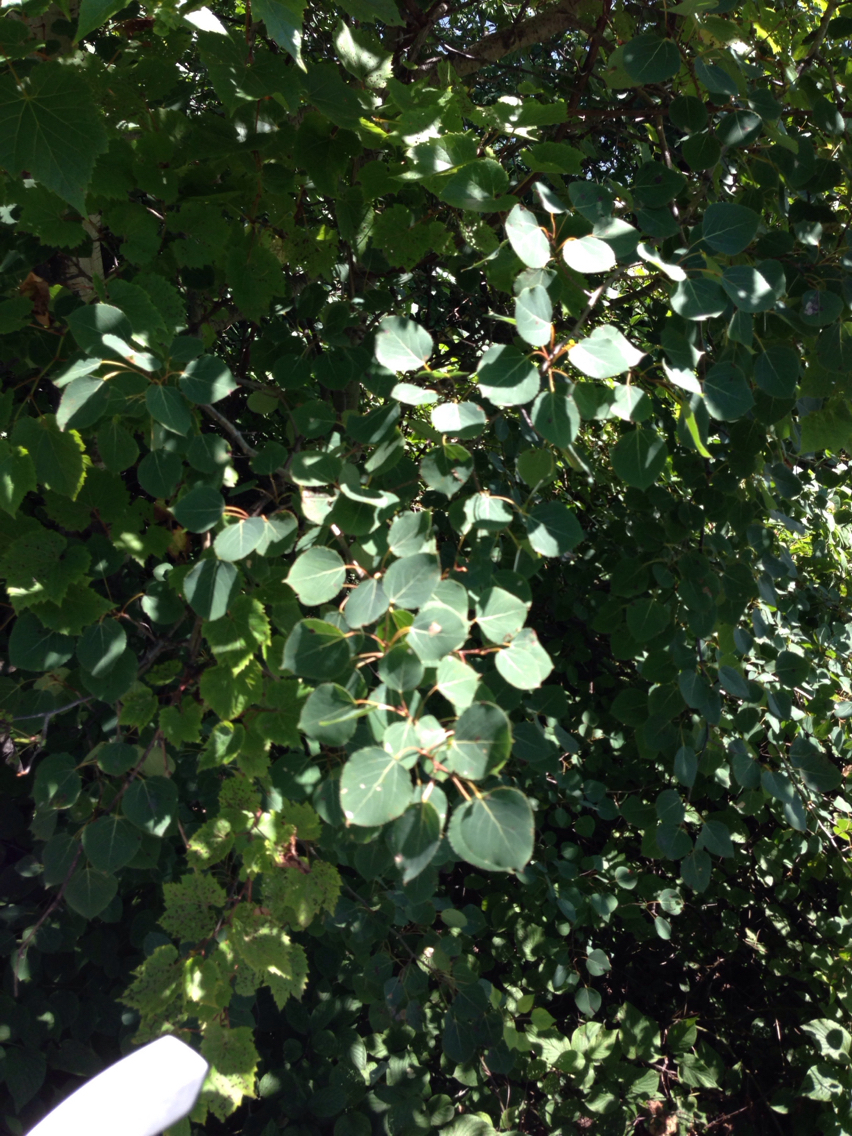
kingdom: Plantae
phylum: Tracheophyta
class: Magnoliopsida
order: Malpighiales
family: Salicaceae
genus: Populus
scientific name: Populus tremuloides
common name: Quaking aspen
